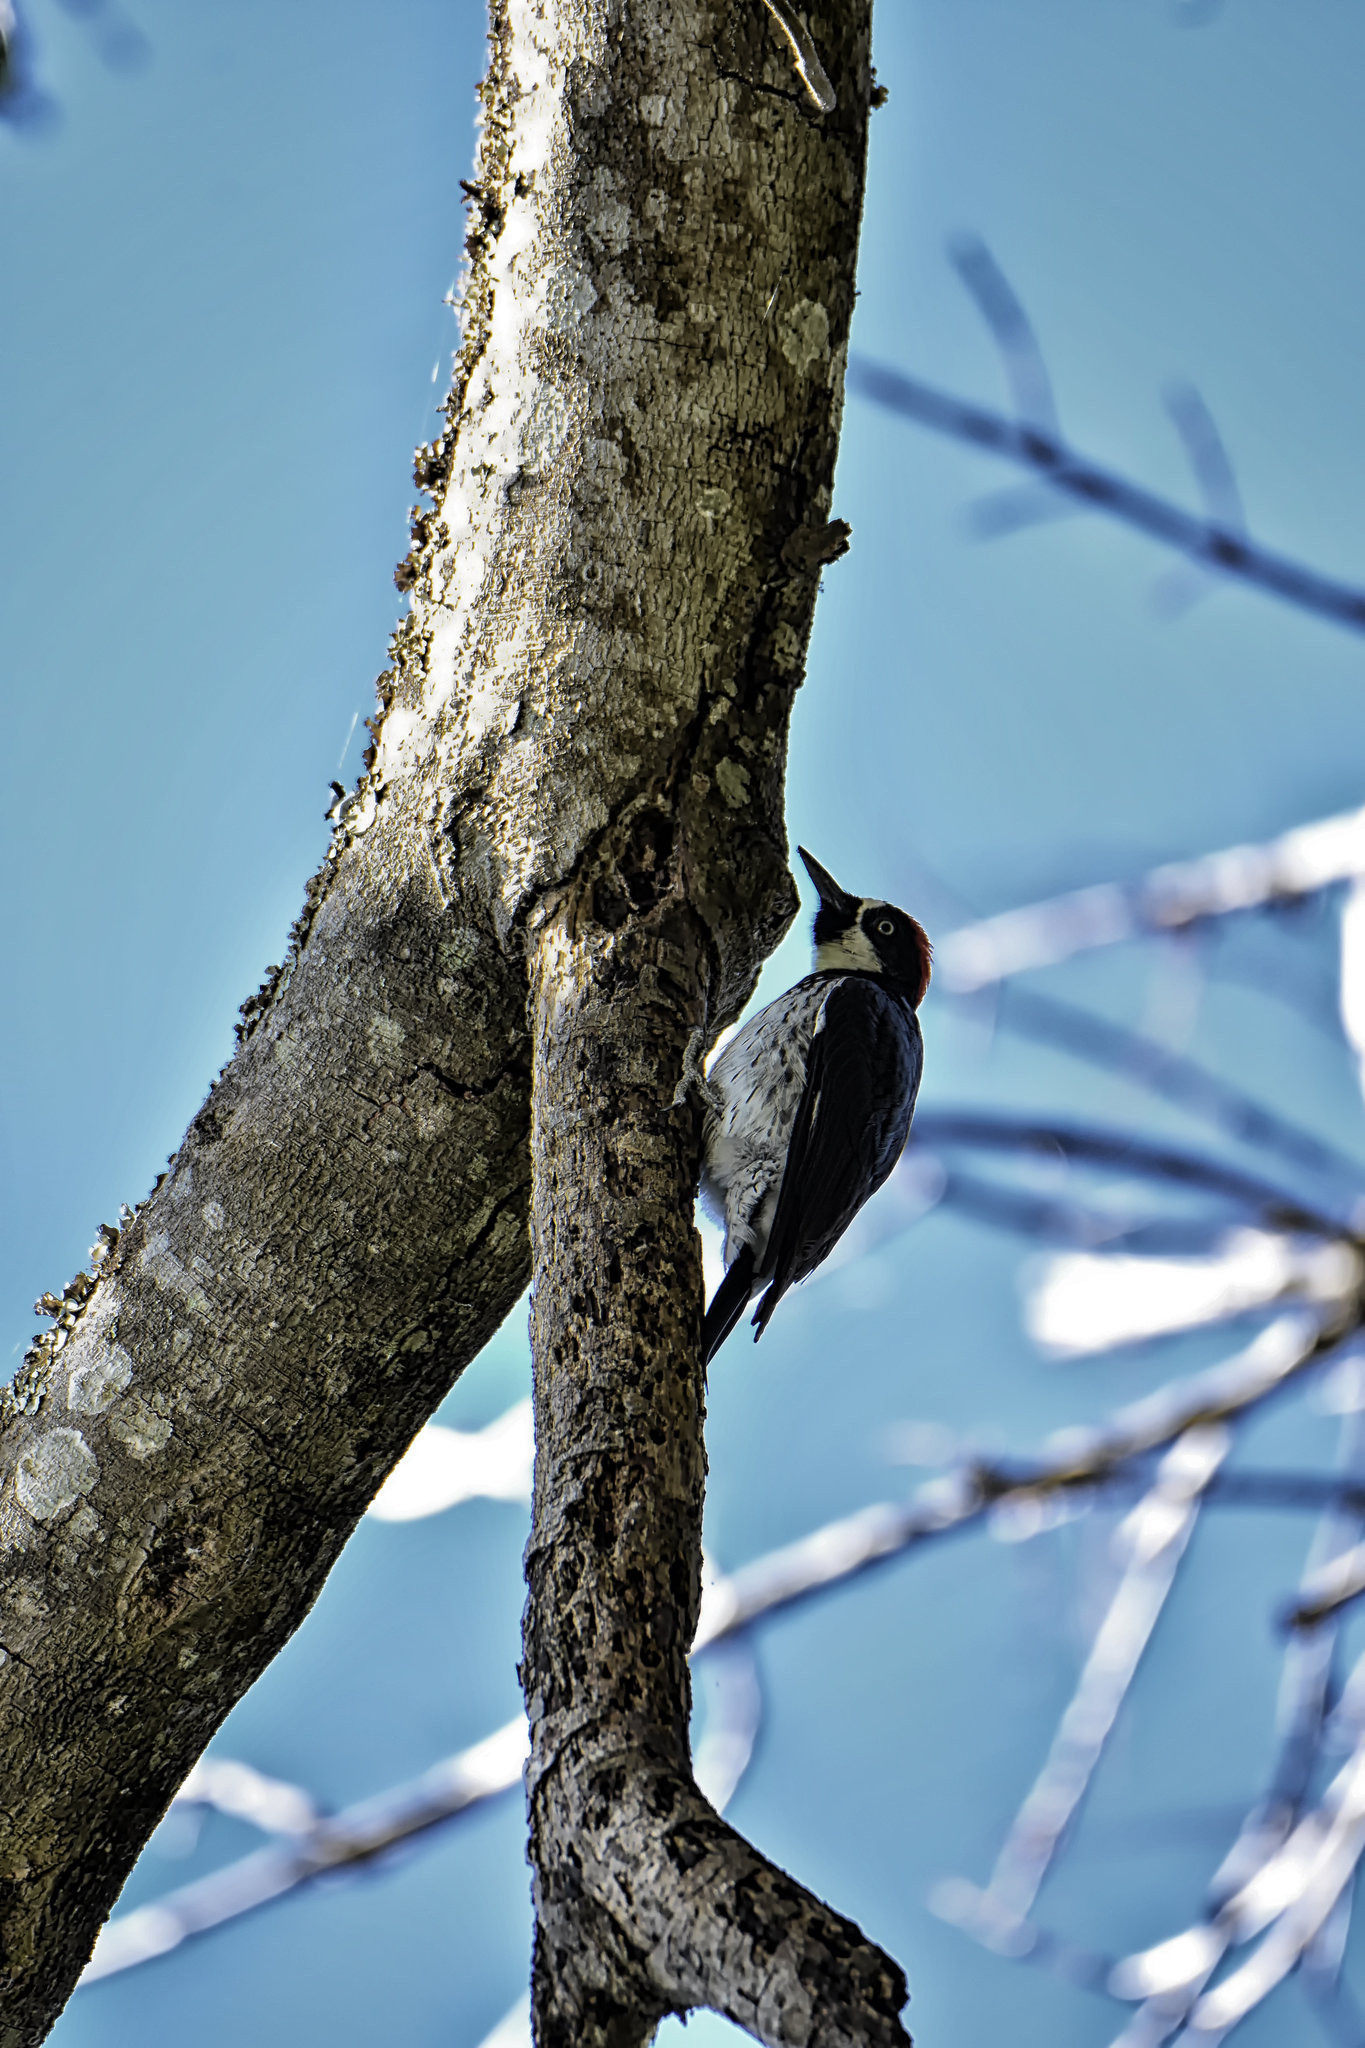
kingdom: Animalia
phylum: Chordata
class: Aves
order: Piciformes
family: Picidae
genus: Melanerpes
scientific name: Melanerpes formicivorus
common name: Acorn woodpecker
